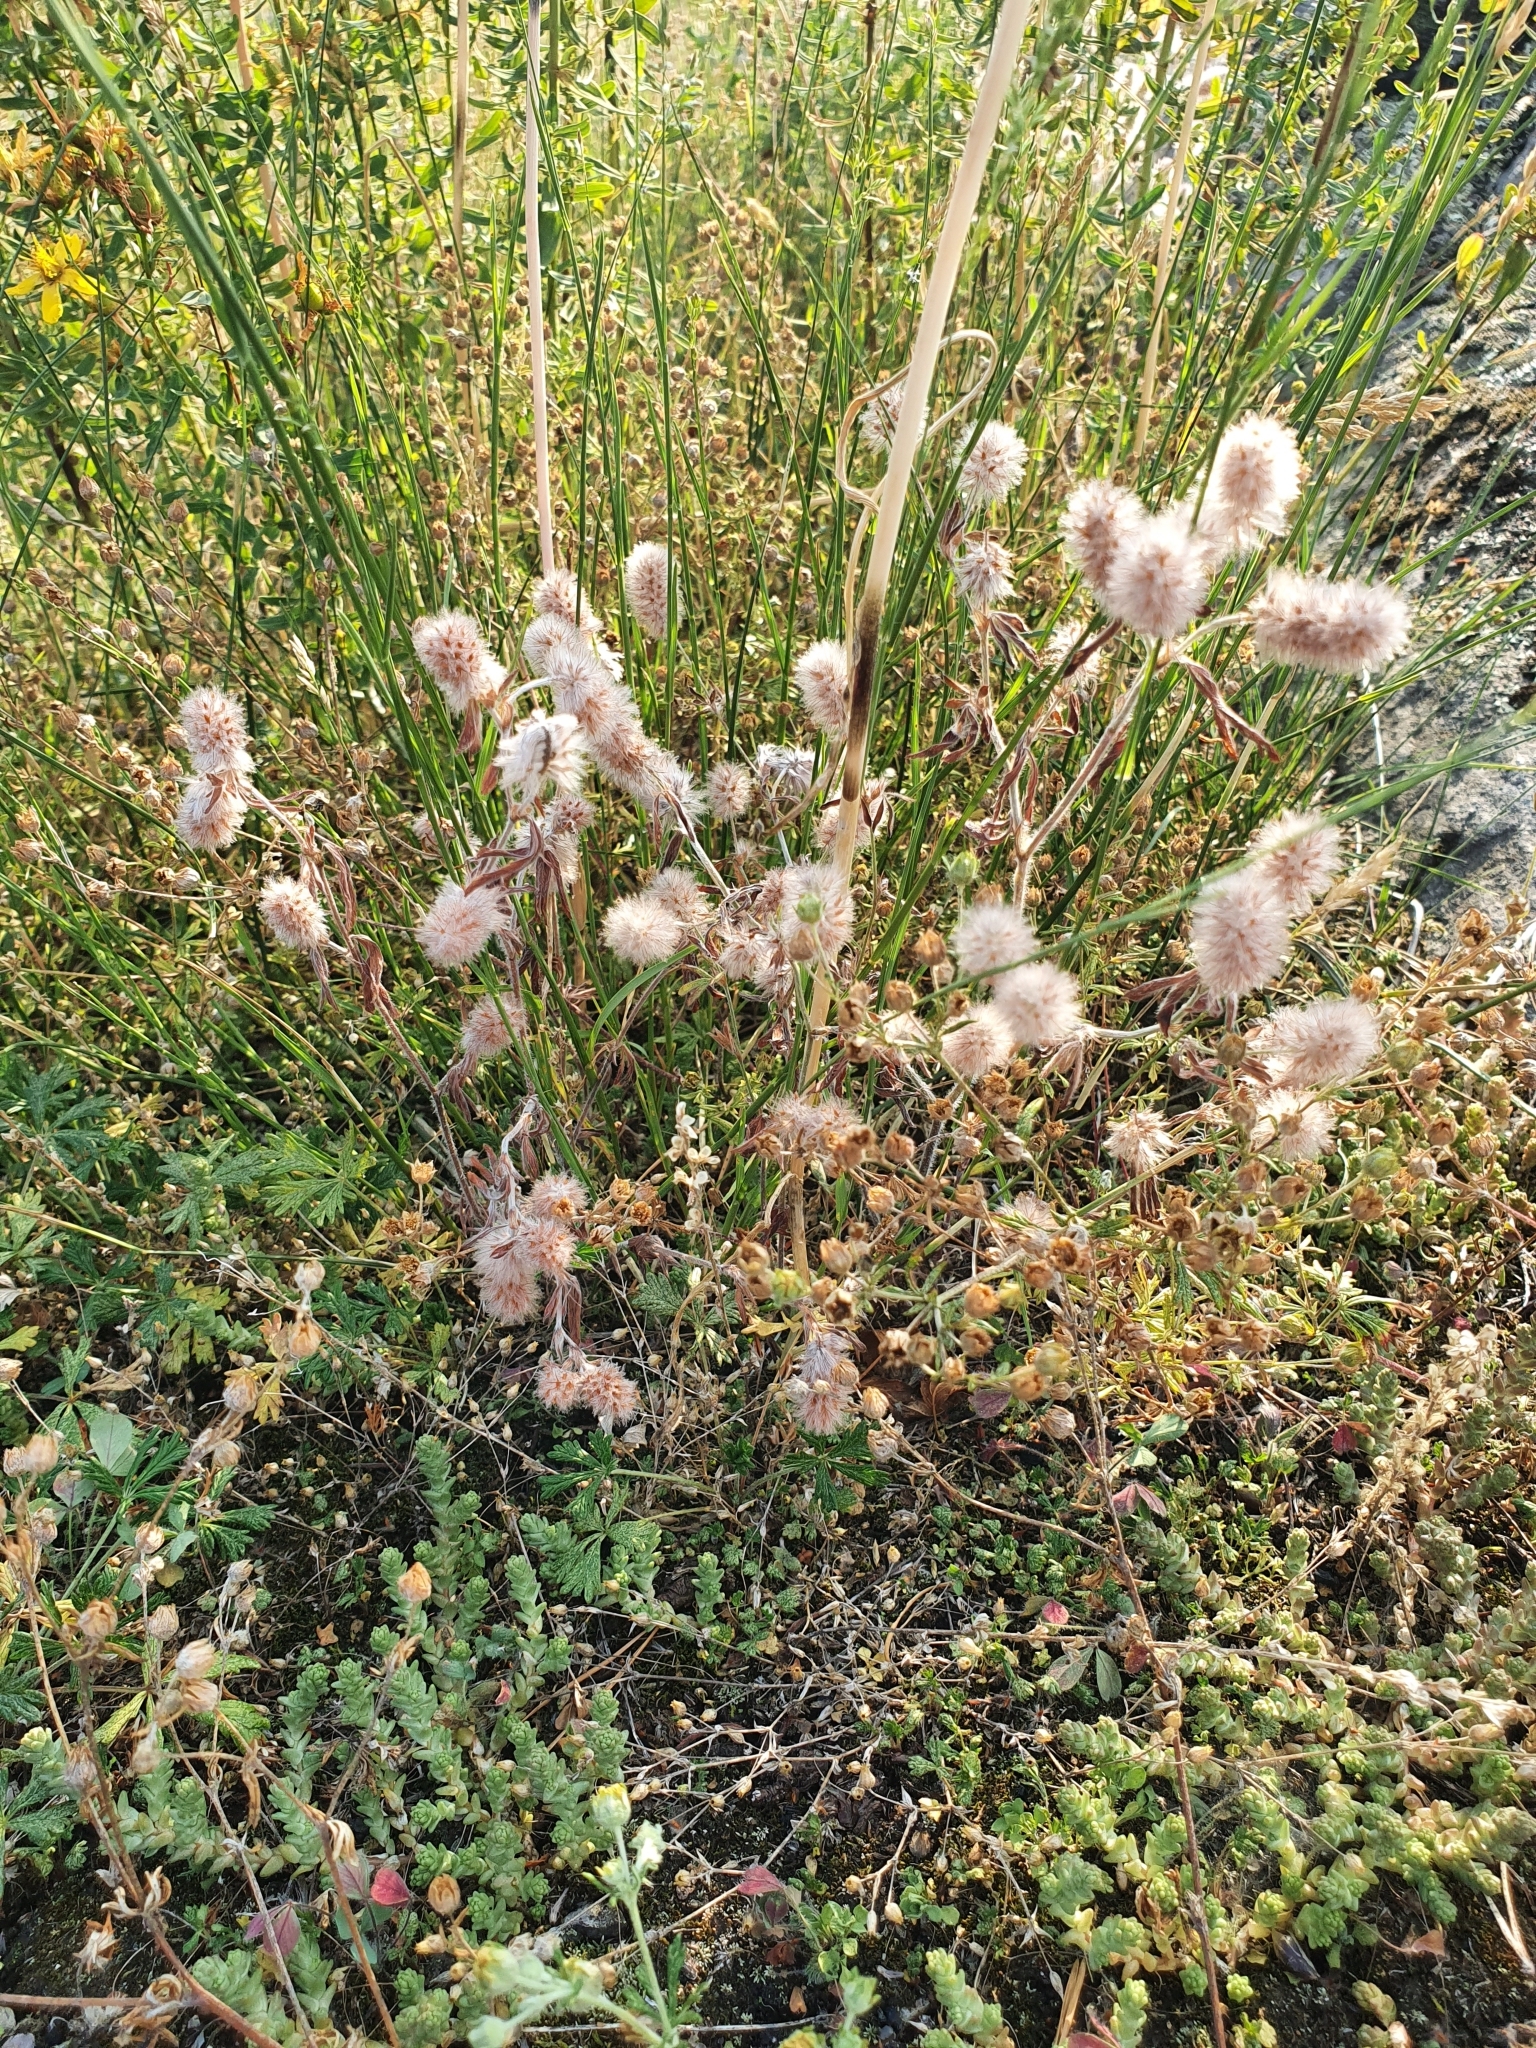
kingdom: Plantae
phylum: Tracheophyta
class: Magnoliopsida
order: Fabales
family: Fabaceae
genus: Trifolium
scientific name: Trifolium arvense
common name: Hare's-foot clover
